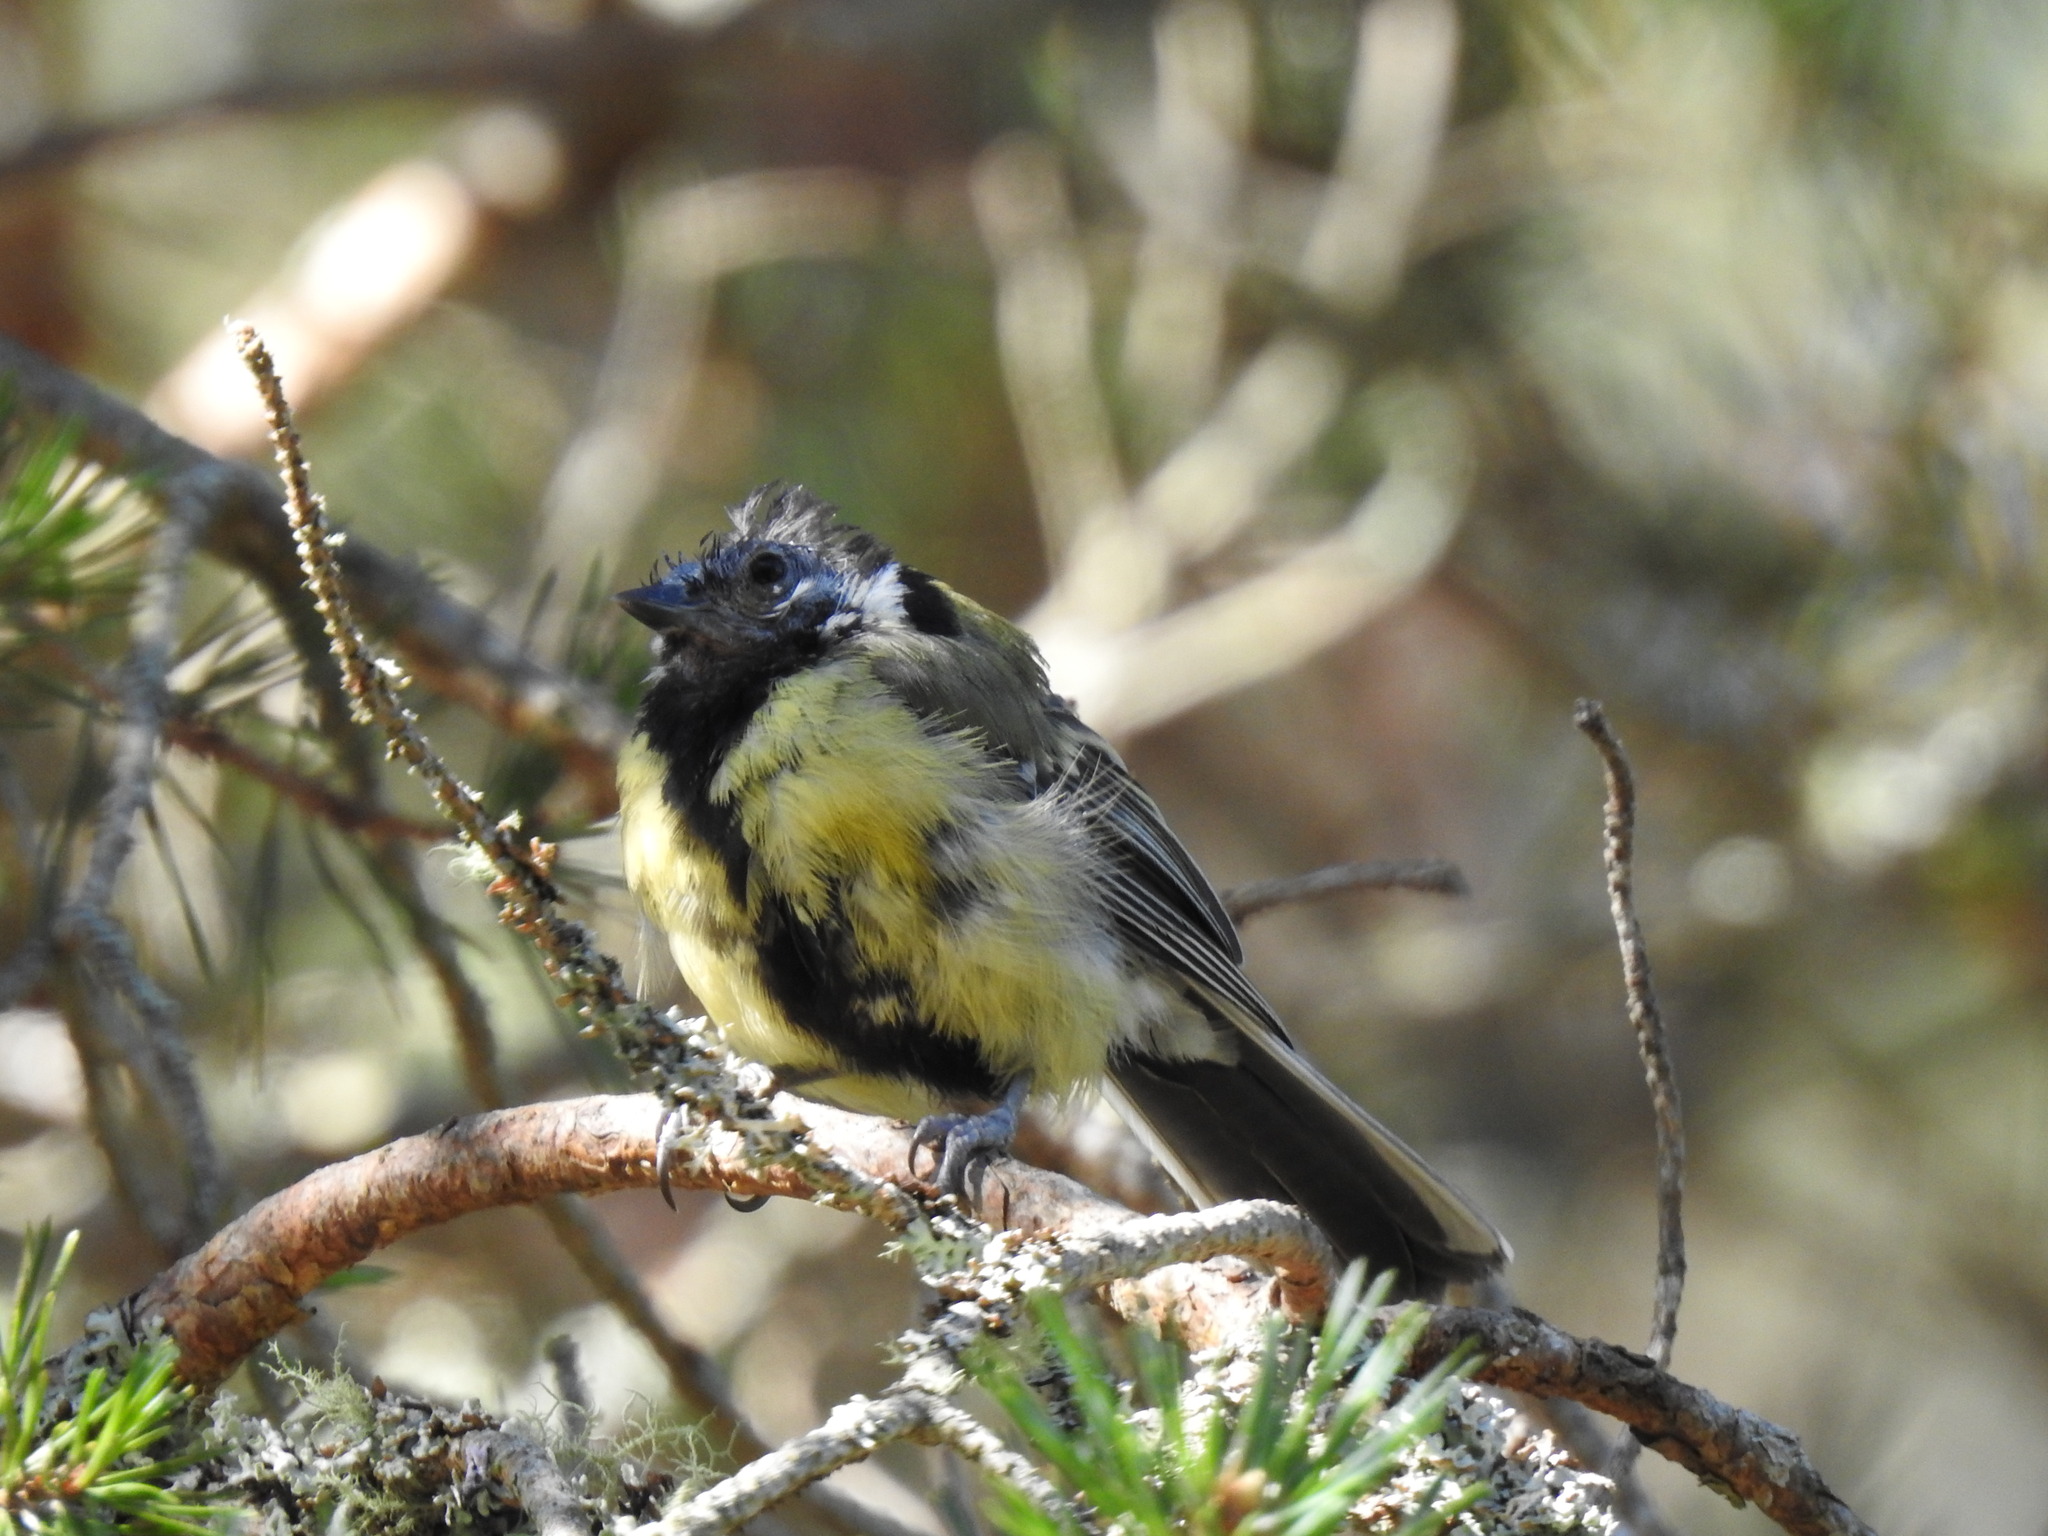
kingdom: Animalia
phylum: Chordata
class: Aves
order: Passeriformes
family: Paridae
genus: Parus
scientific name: Parus major
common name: Great tit
